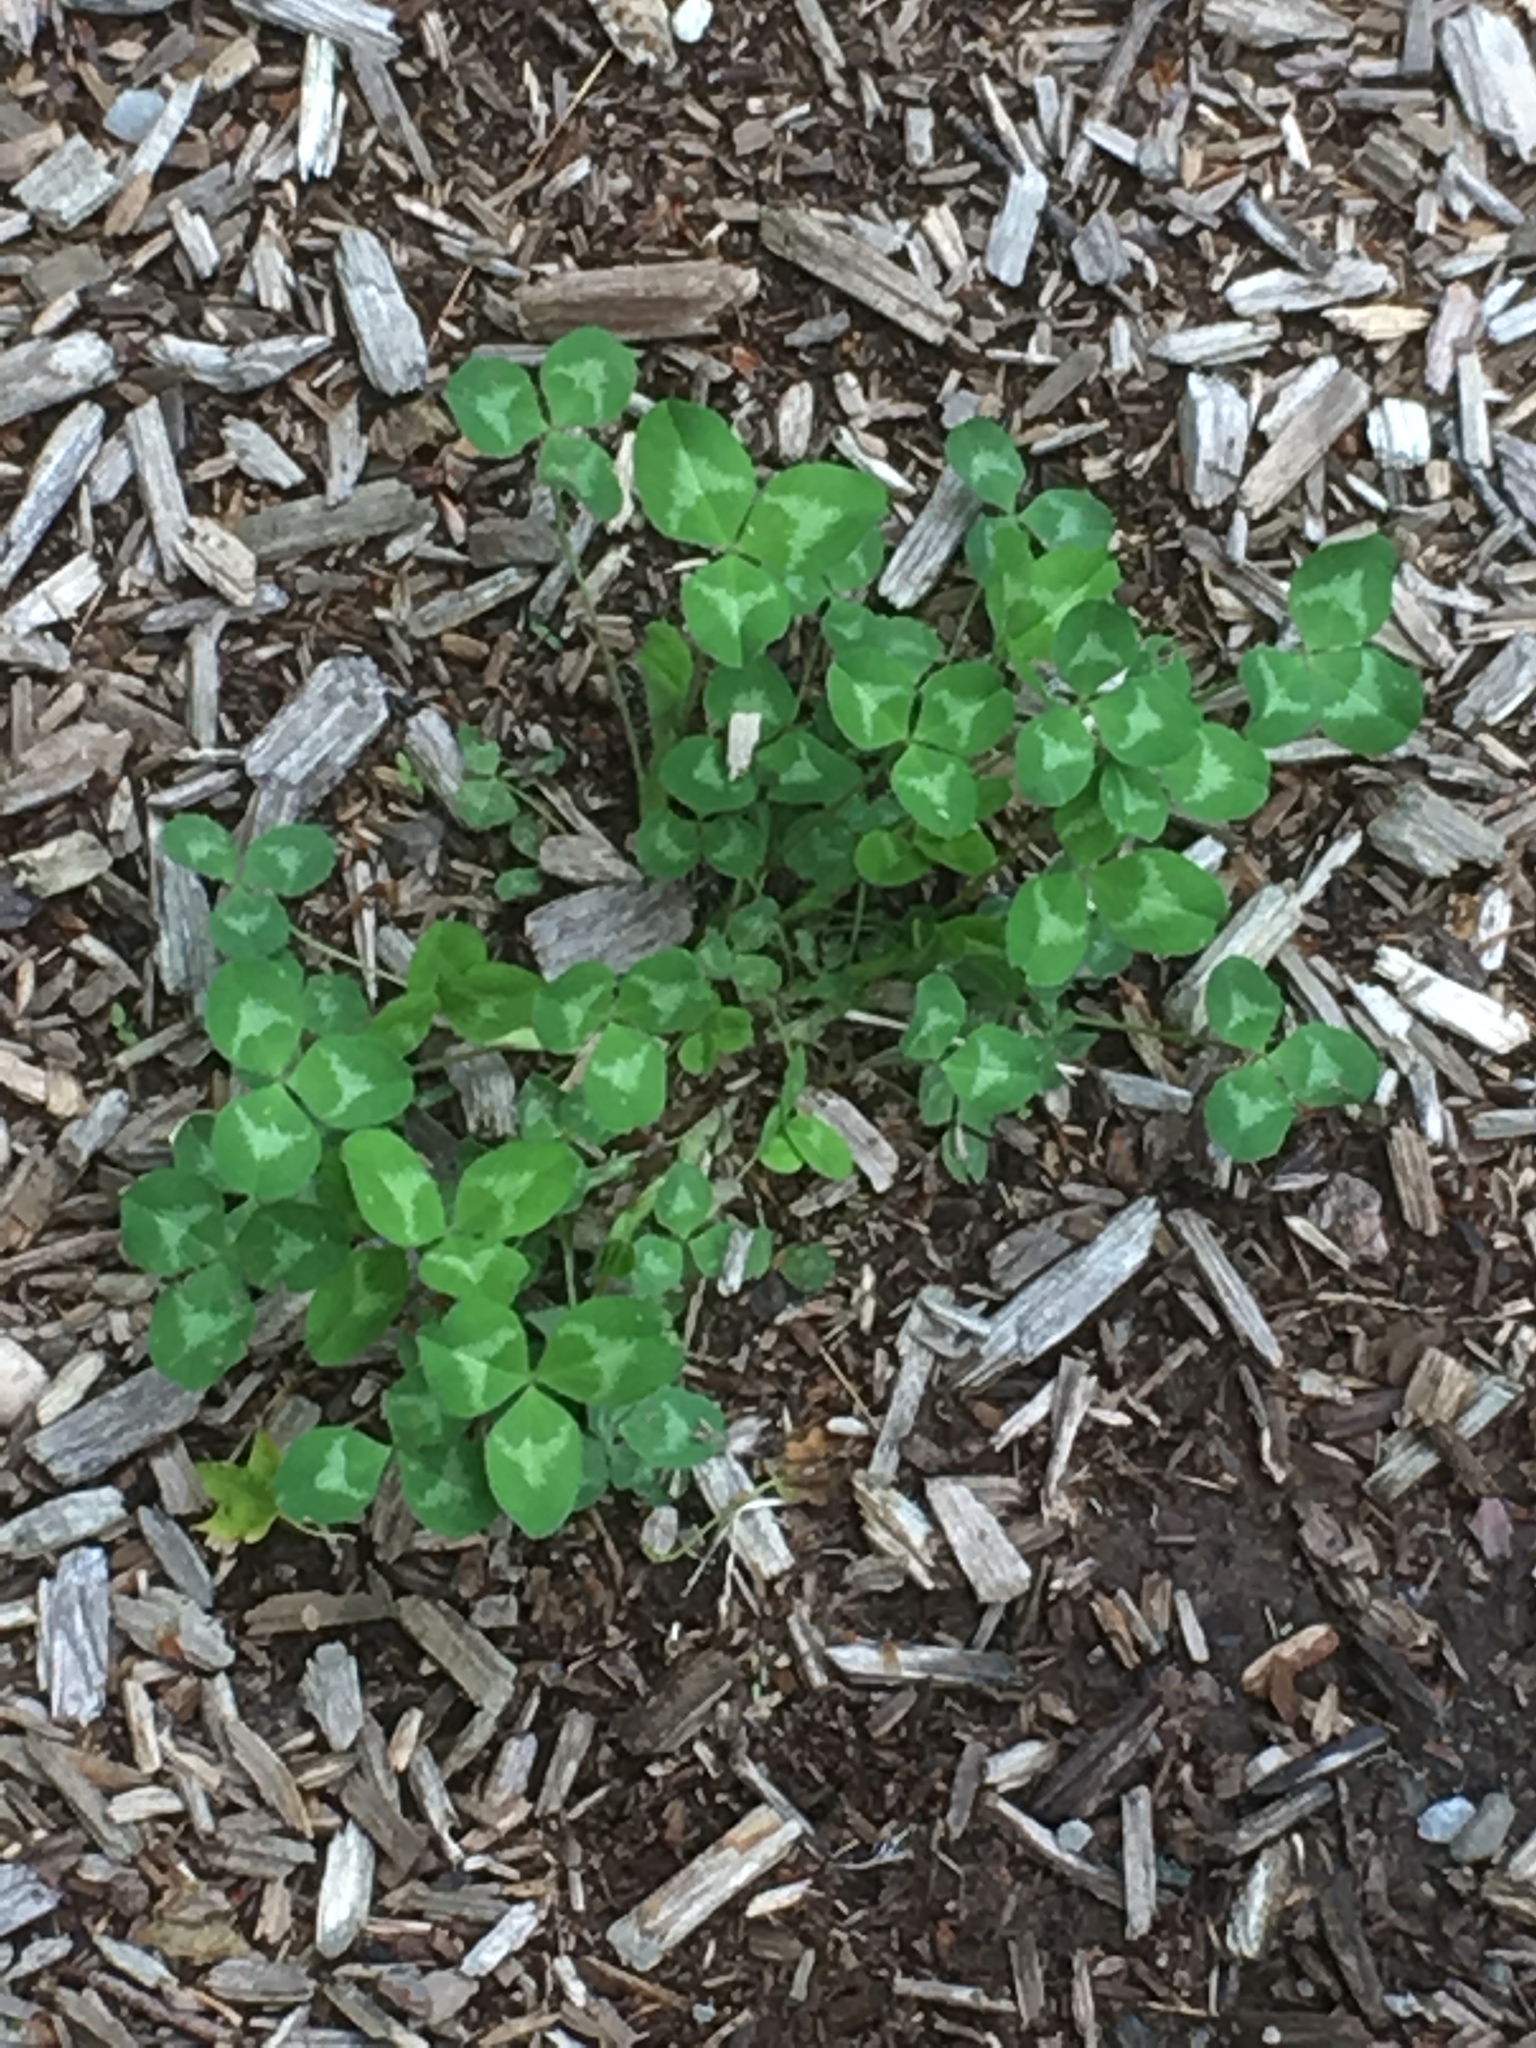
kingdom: Plantae
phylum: Tracheophyta
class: Magnoliopsida
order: Fabales
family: Fabaceae
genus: Trifolium
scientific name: Trifolium pratense
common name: Red clover
